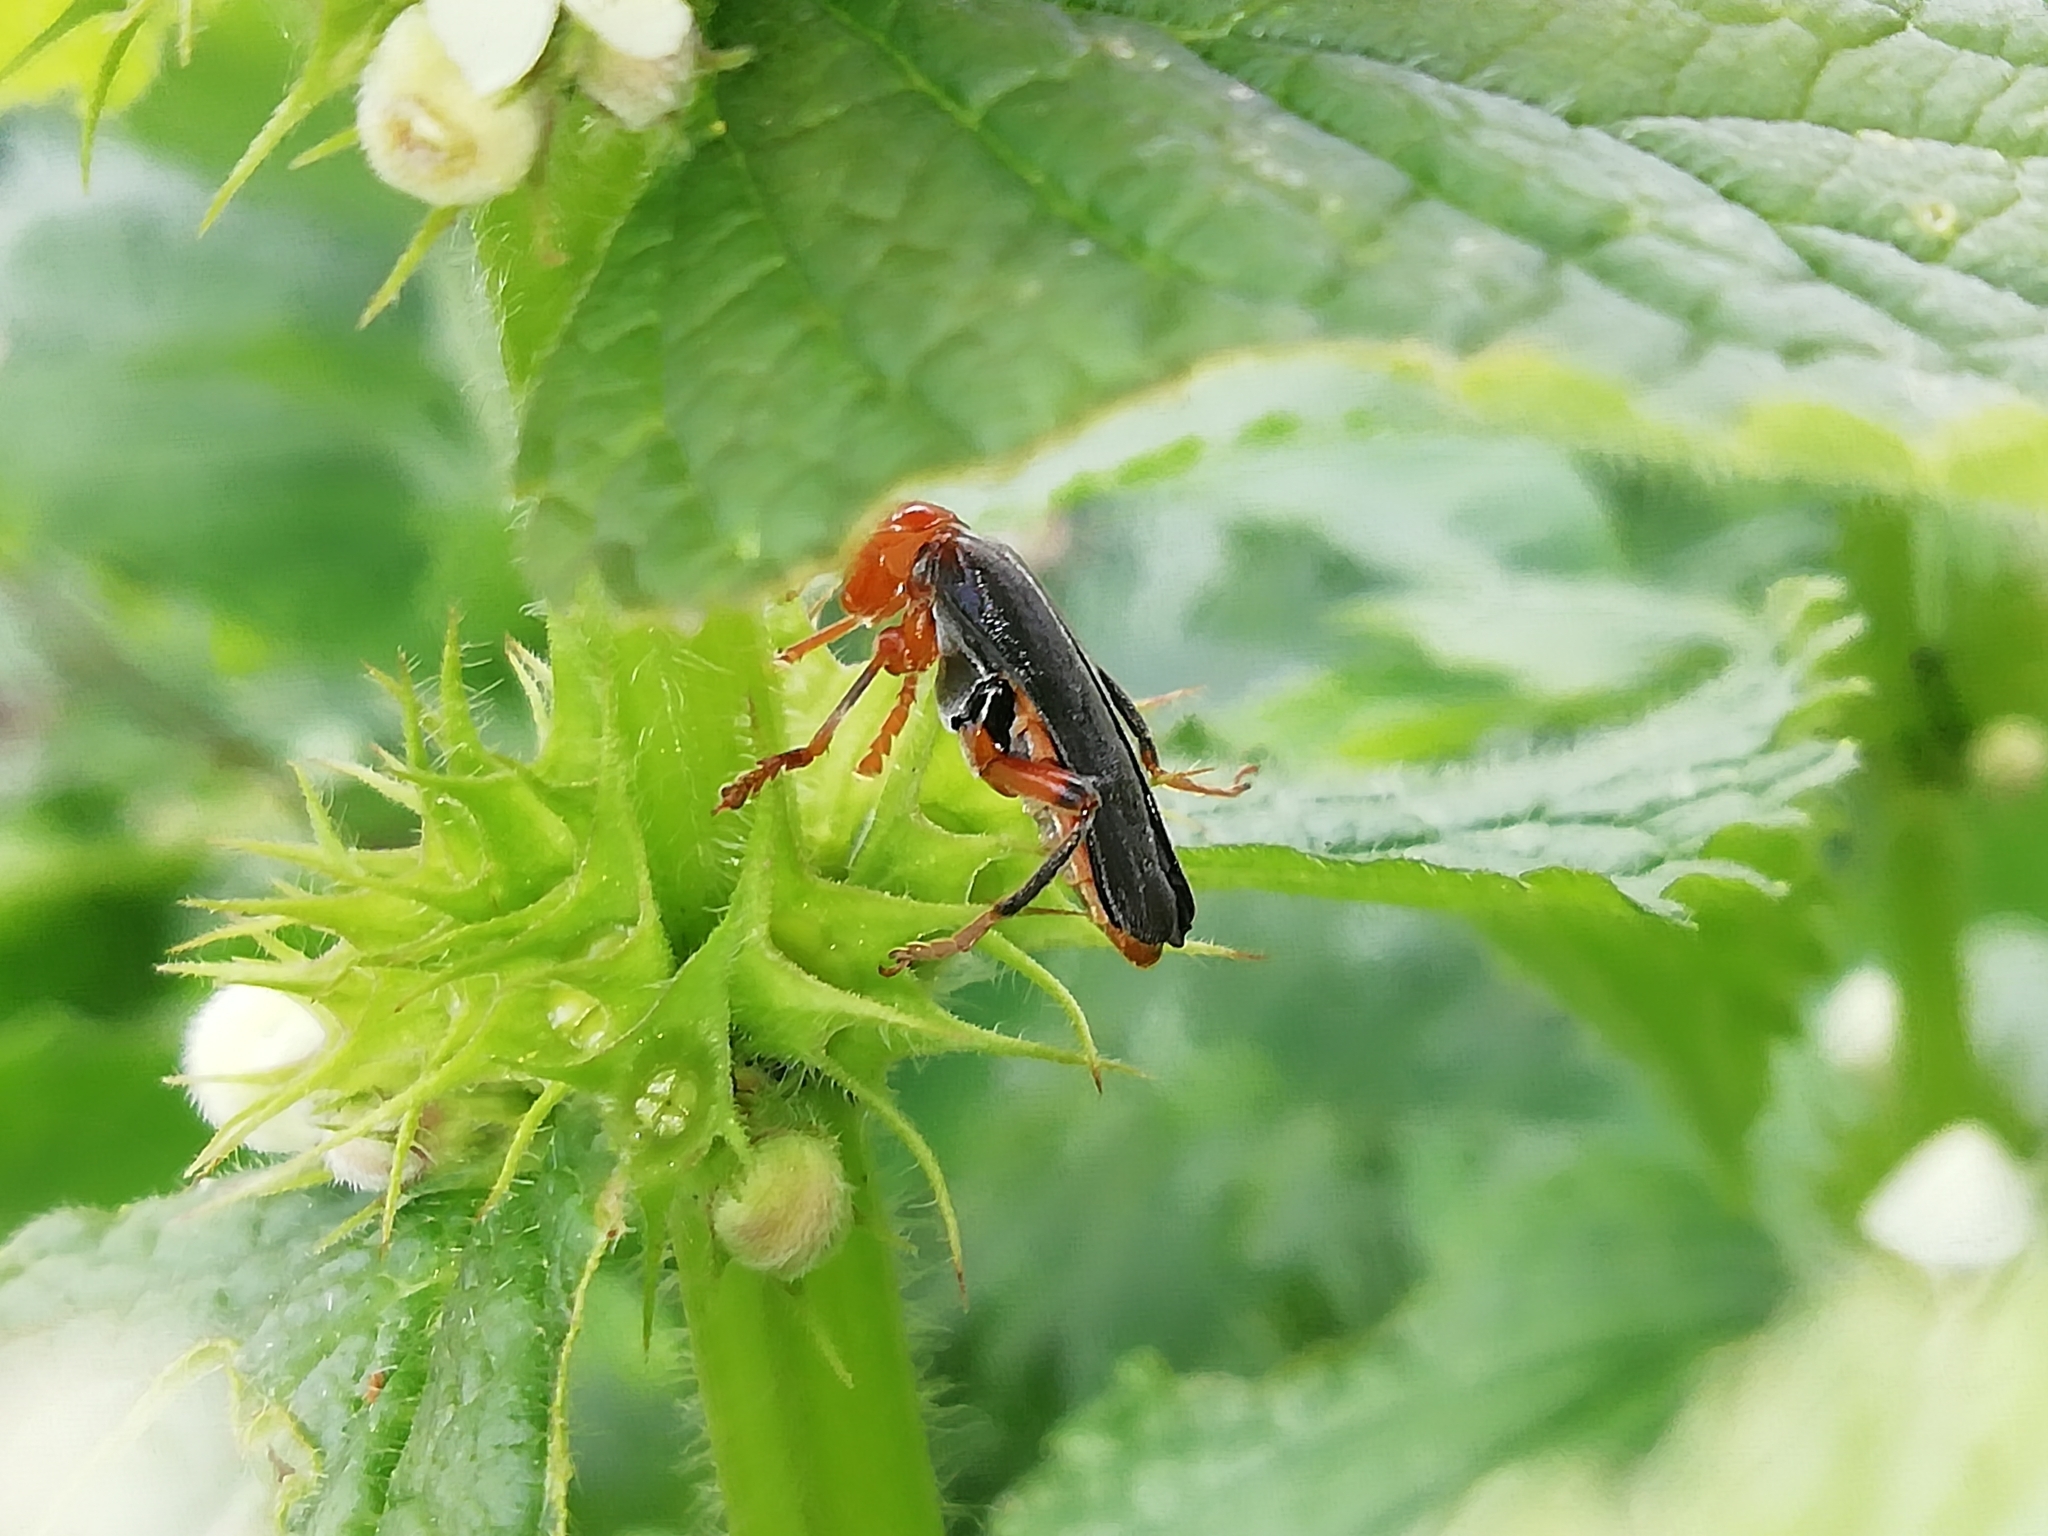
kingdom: Animalia
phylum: Arthropoda
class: Insecta
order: Coleoptera
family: Cantharidae
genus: Cantharis
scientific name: Cantharis livida
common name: Livid soldier beetle
